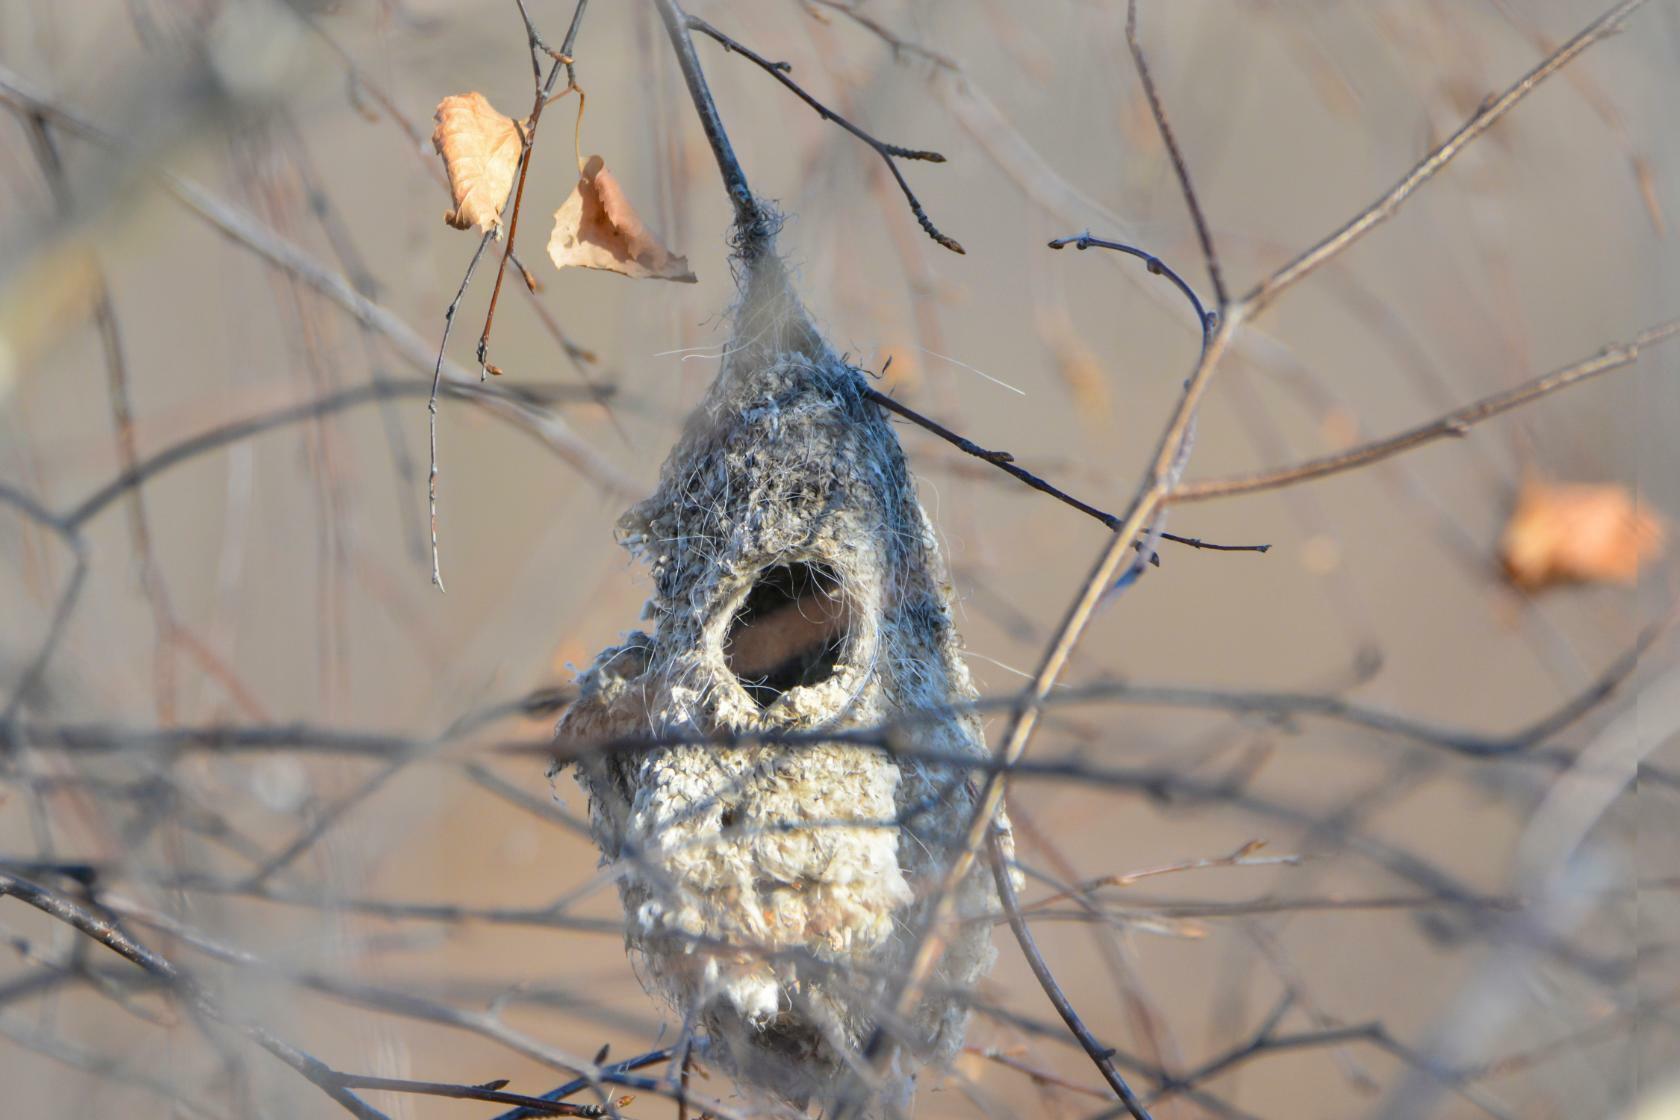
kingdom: Animalia
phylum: Chordata
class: Aves
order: Passeriformes
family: Remizidae
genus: Remiz
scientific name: Remiz pendulinus
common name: Eurasian penduline tit
